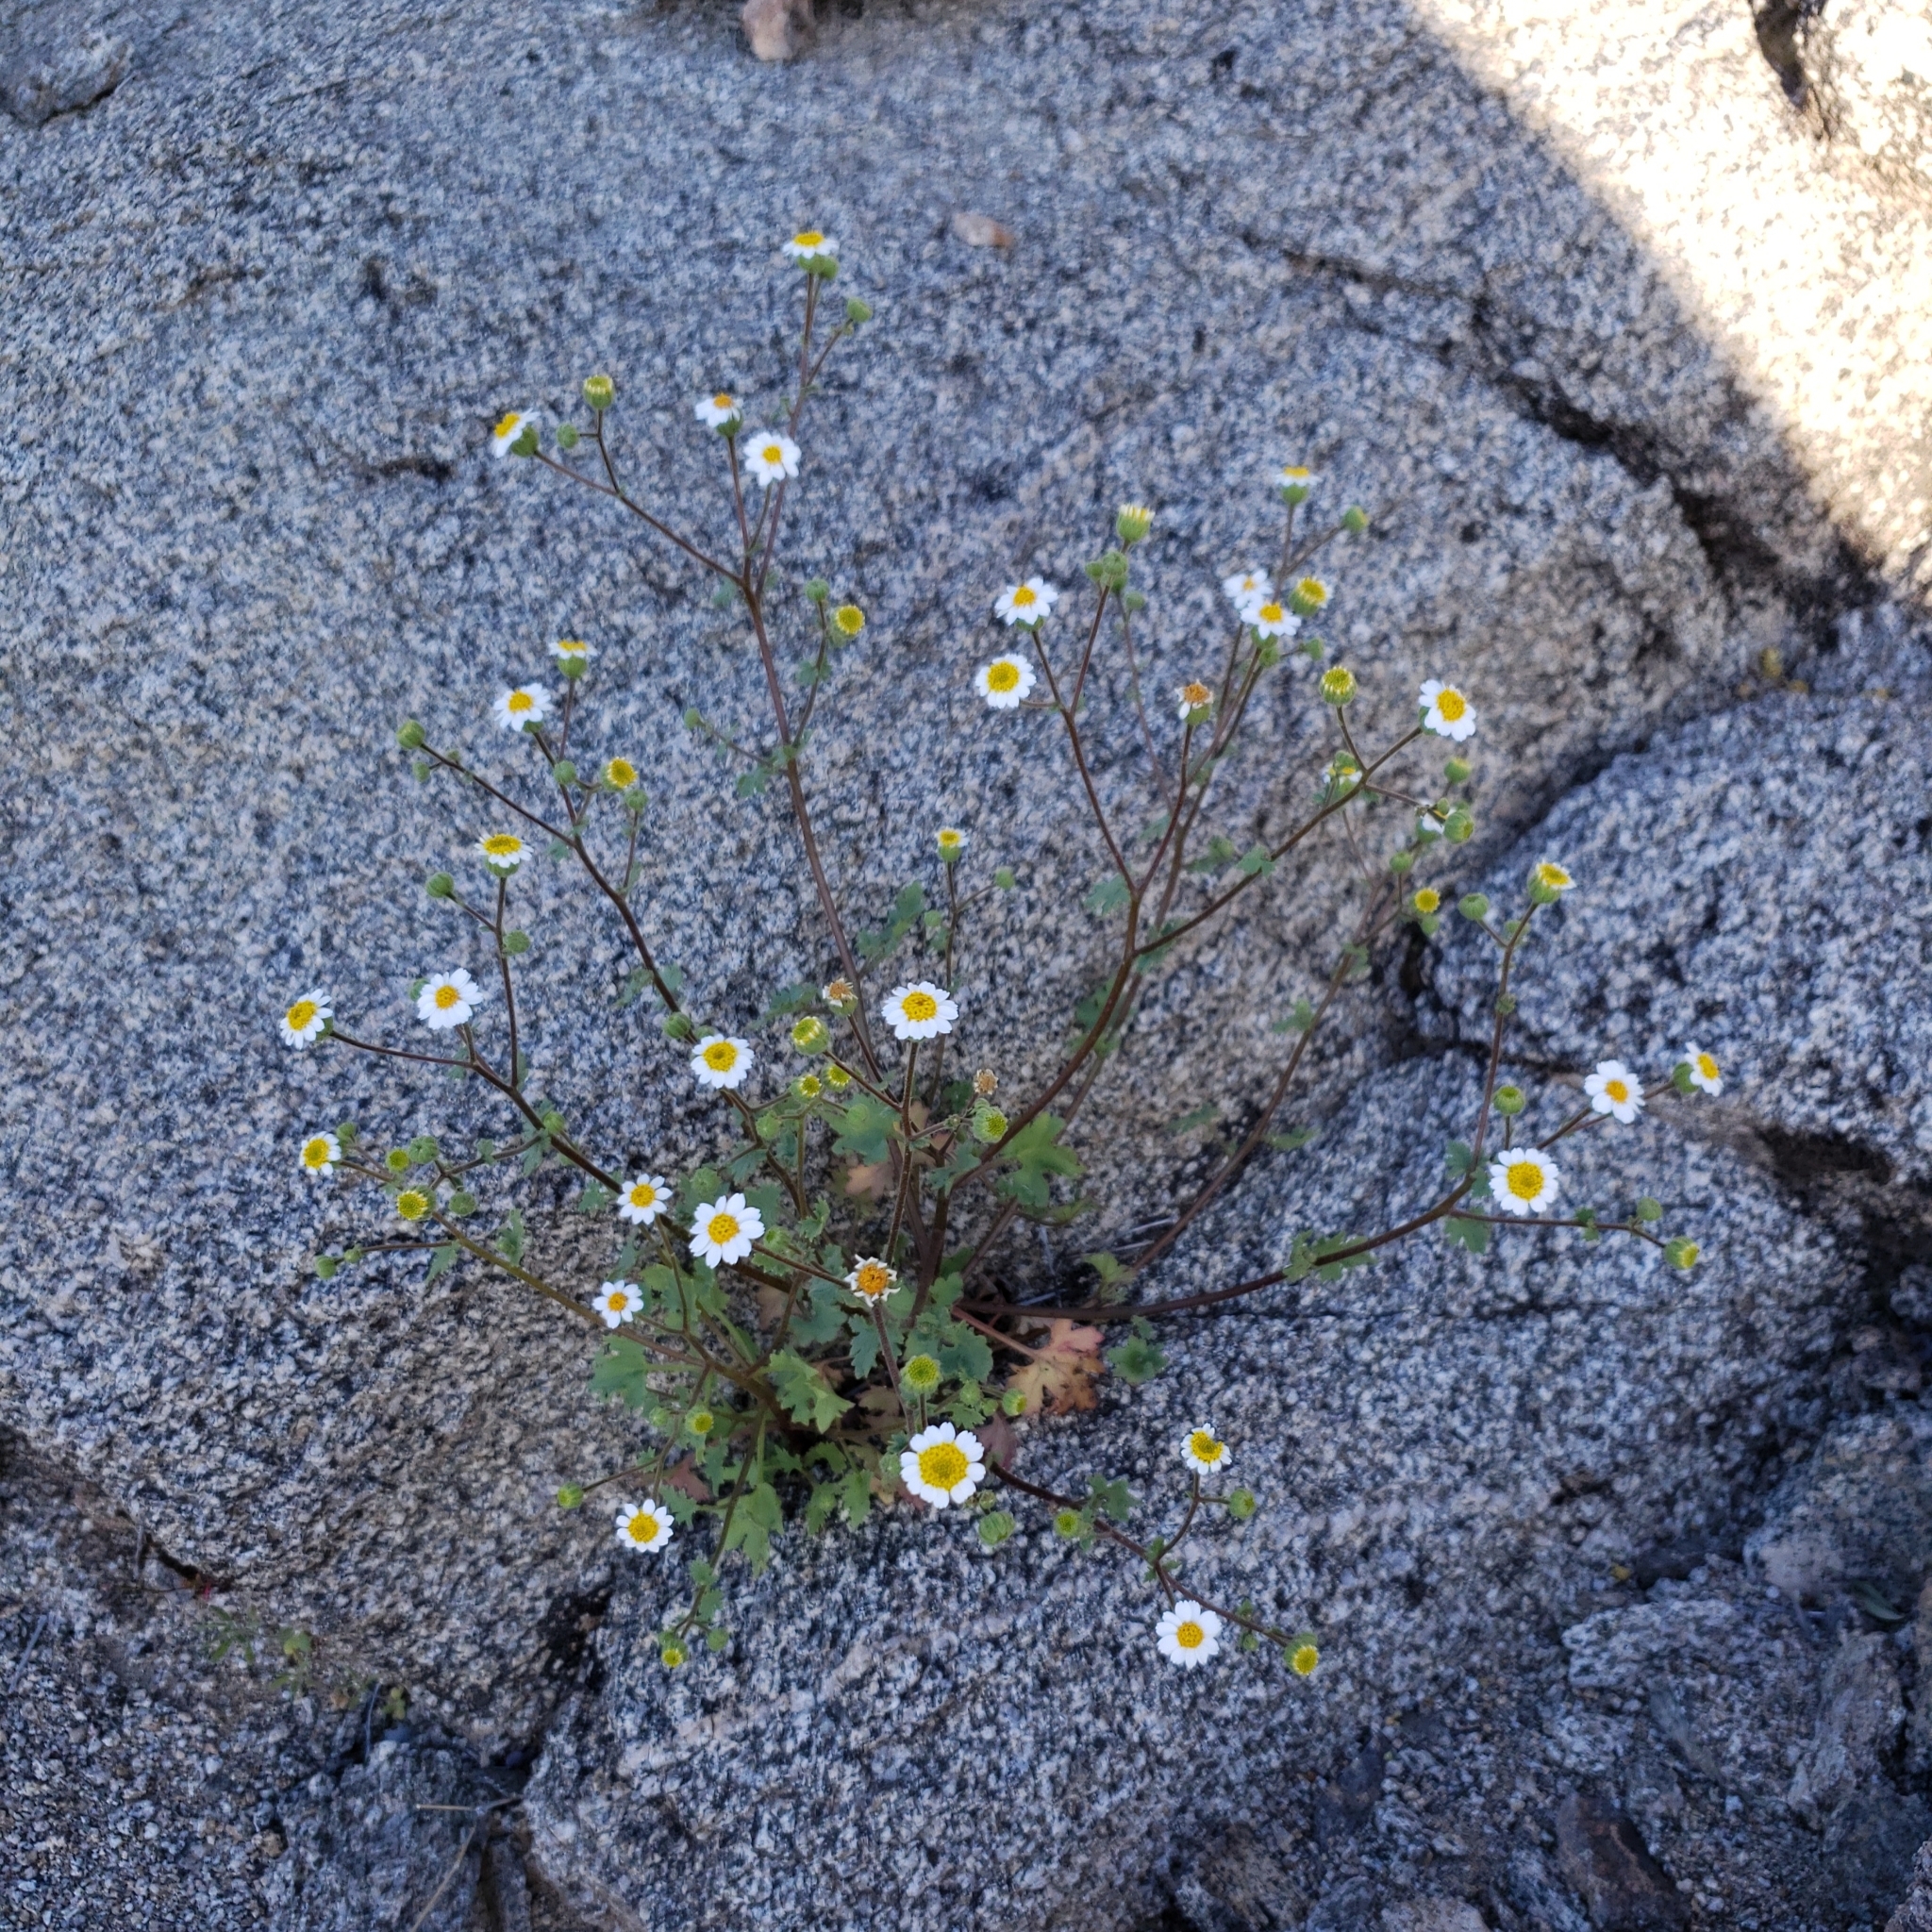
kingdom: Plantae
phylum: Tracheophyta
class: Magnoliopsida
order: Asterales
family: Asteraceae
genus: Laphamia
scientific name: Laphamia emoryi
